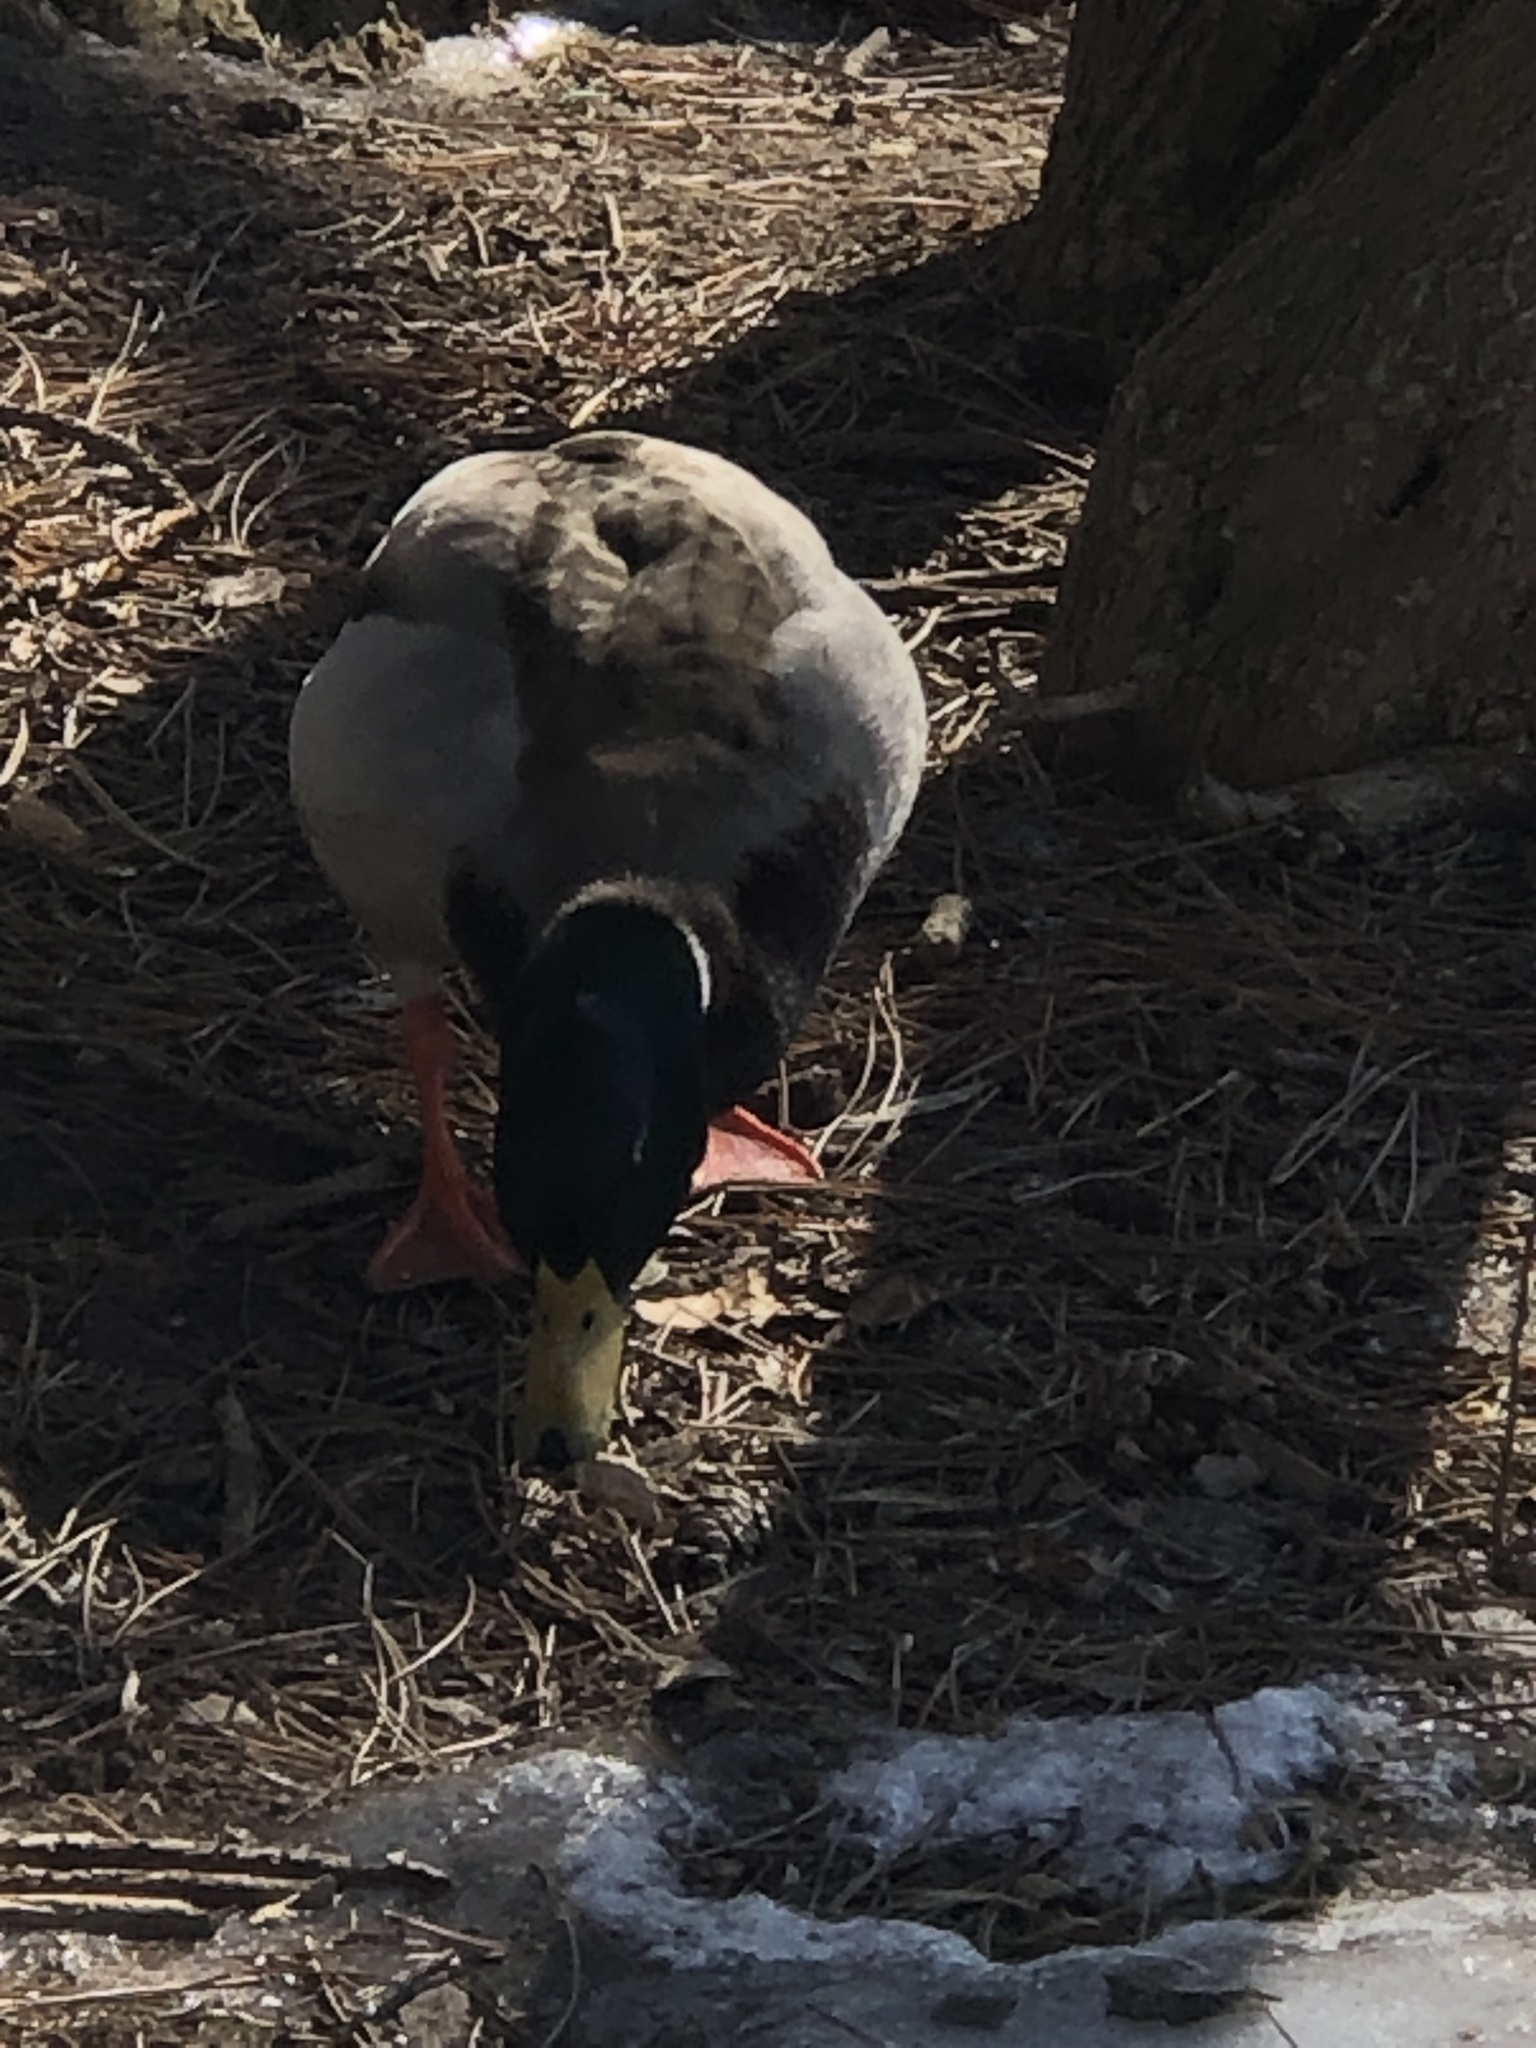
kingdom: Animalia
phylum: Chordata
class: Aves
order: Anseriformes
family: Anatidae
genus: Anas
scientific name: Anas platyrhynchos
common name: Mallard
